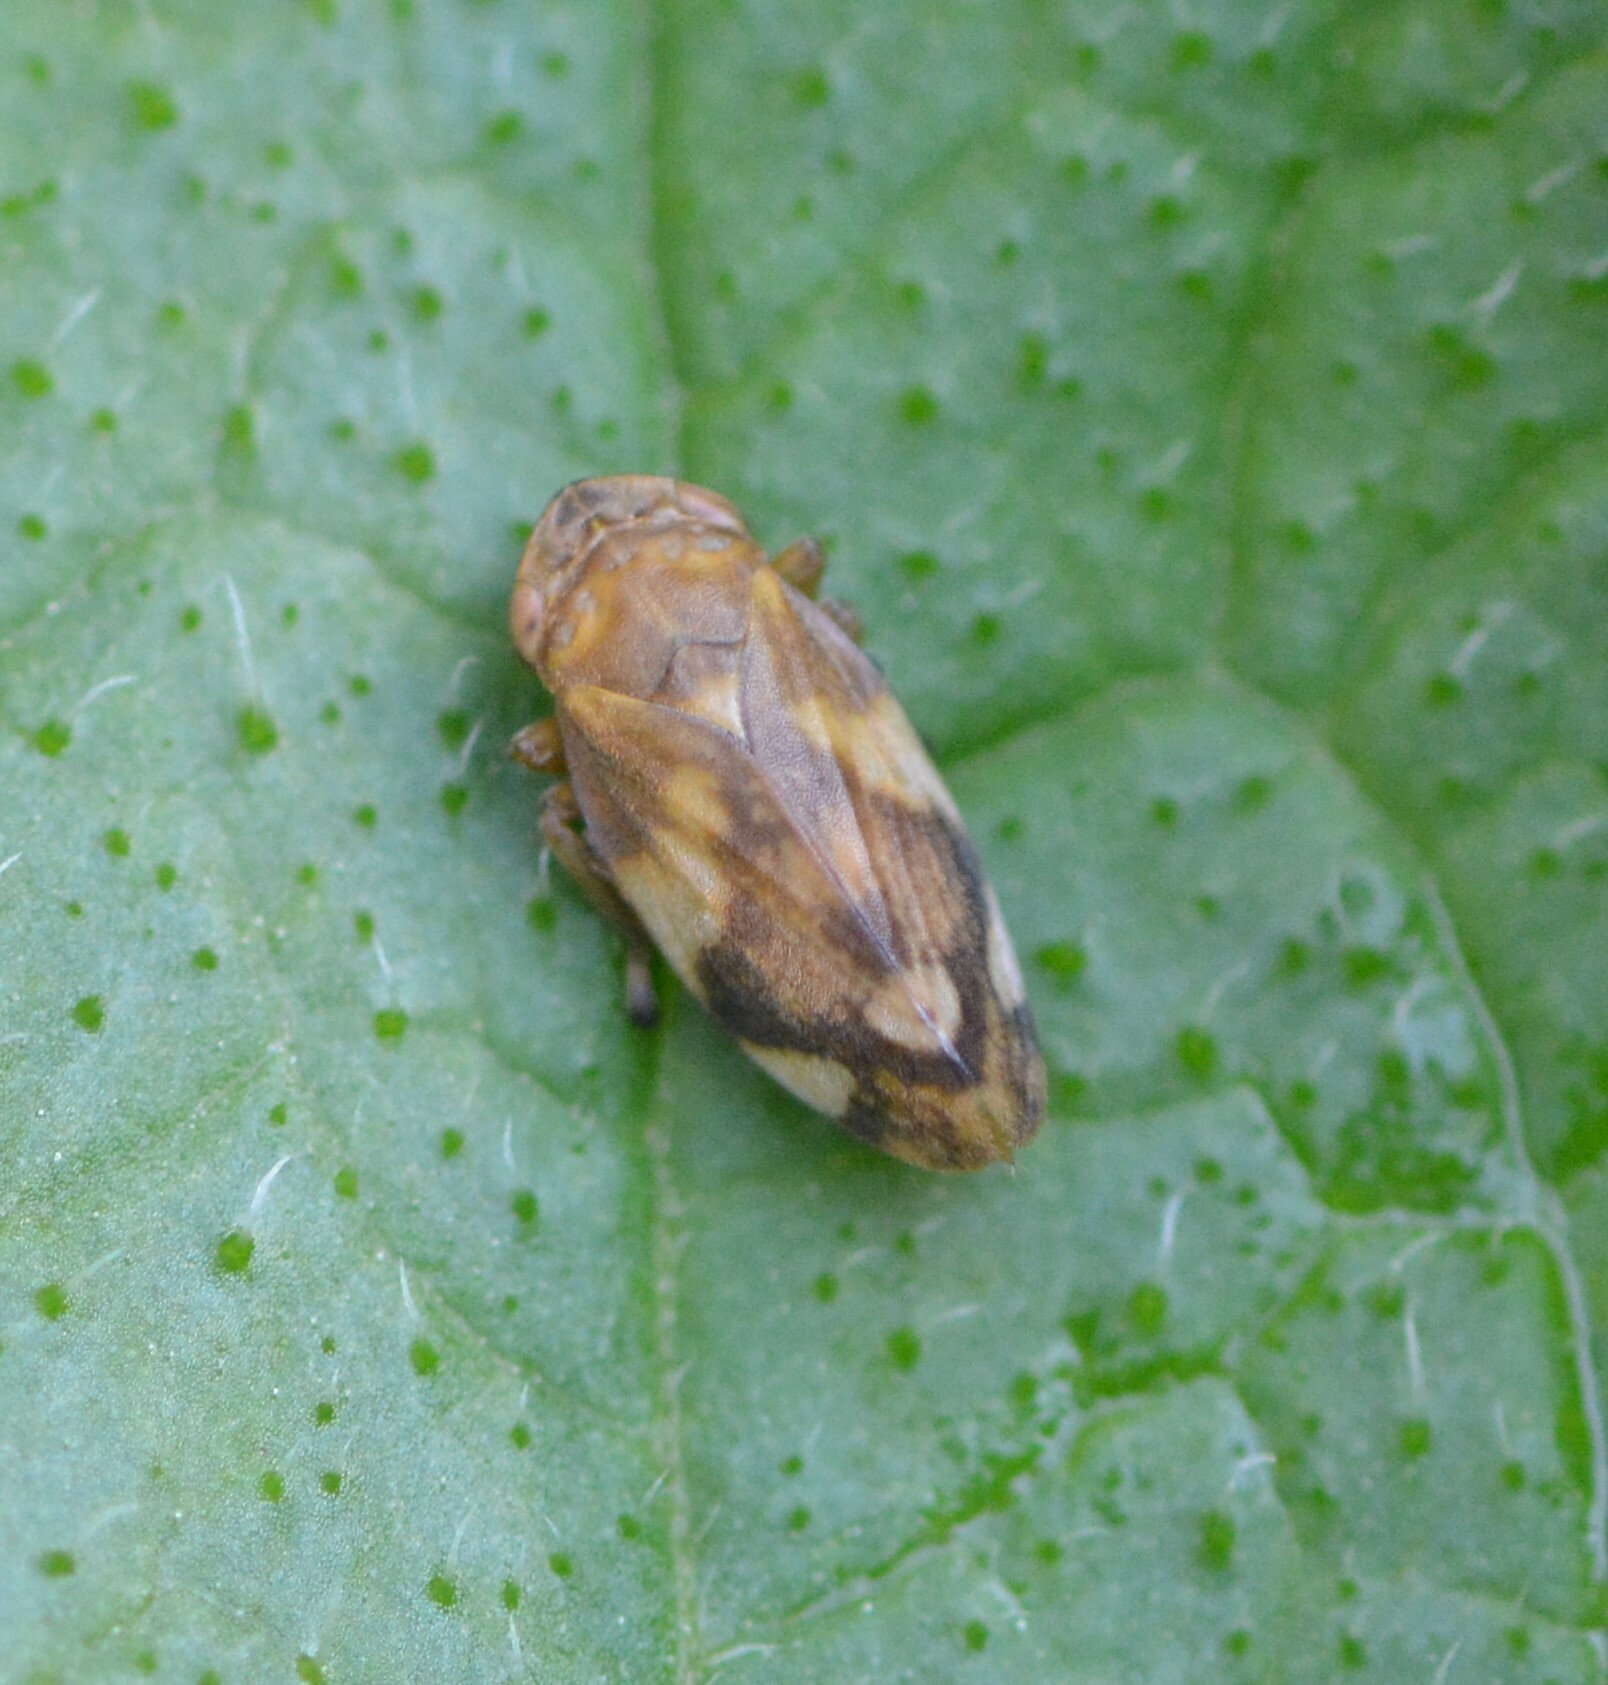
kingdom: Animalia
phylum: Arthropoda
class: Insecta
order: Hemiptera
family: Aphrophoridae
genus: Philaenus
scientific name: Philaenus spumarius
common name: Meadow spittlebug
